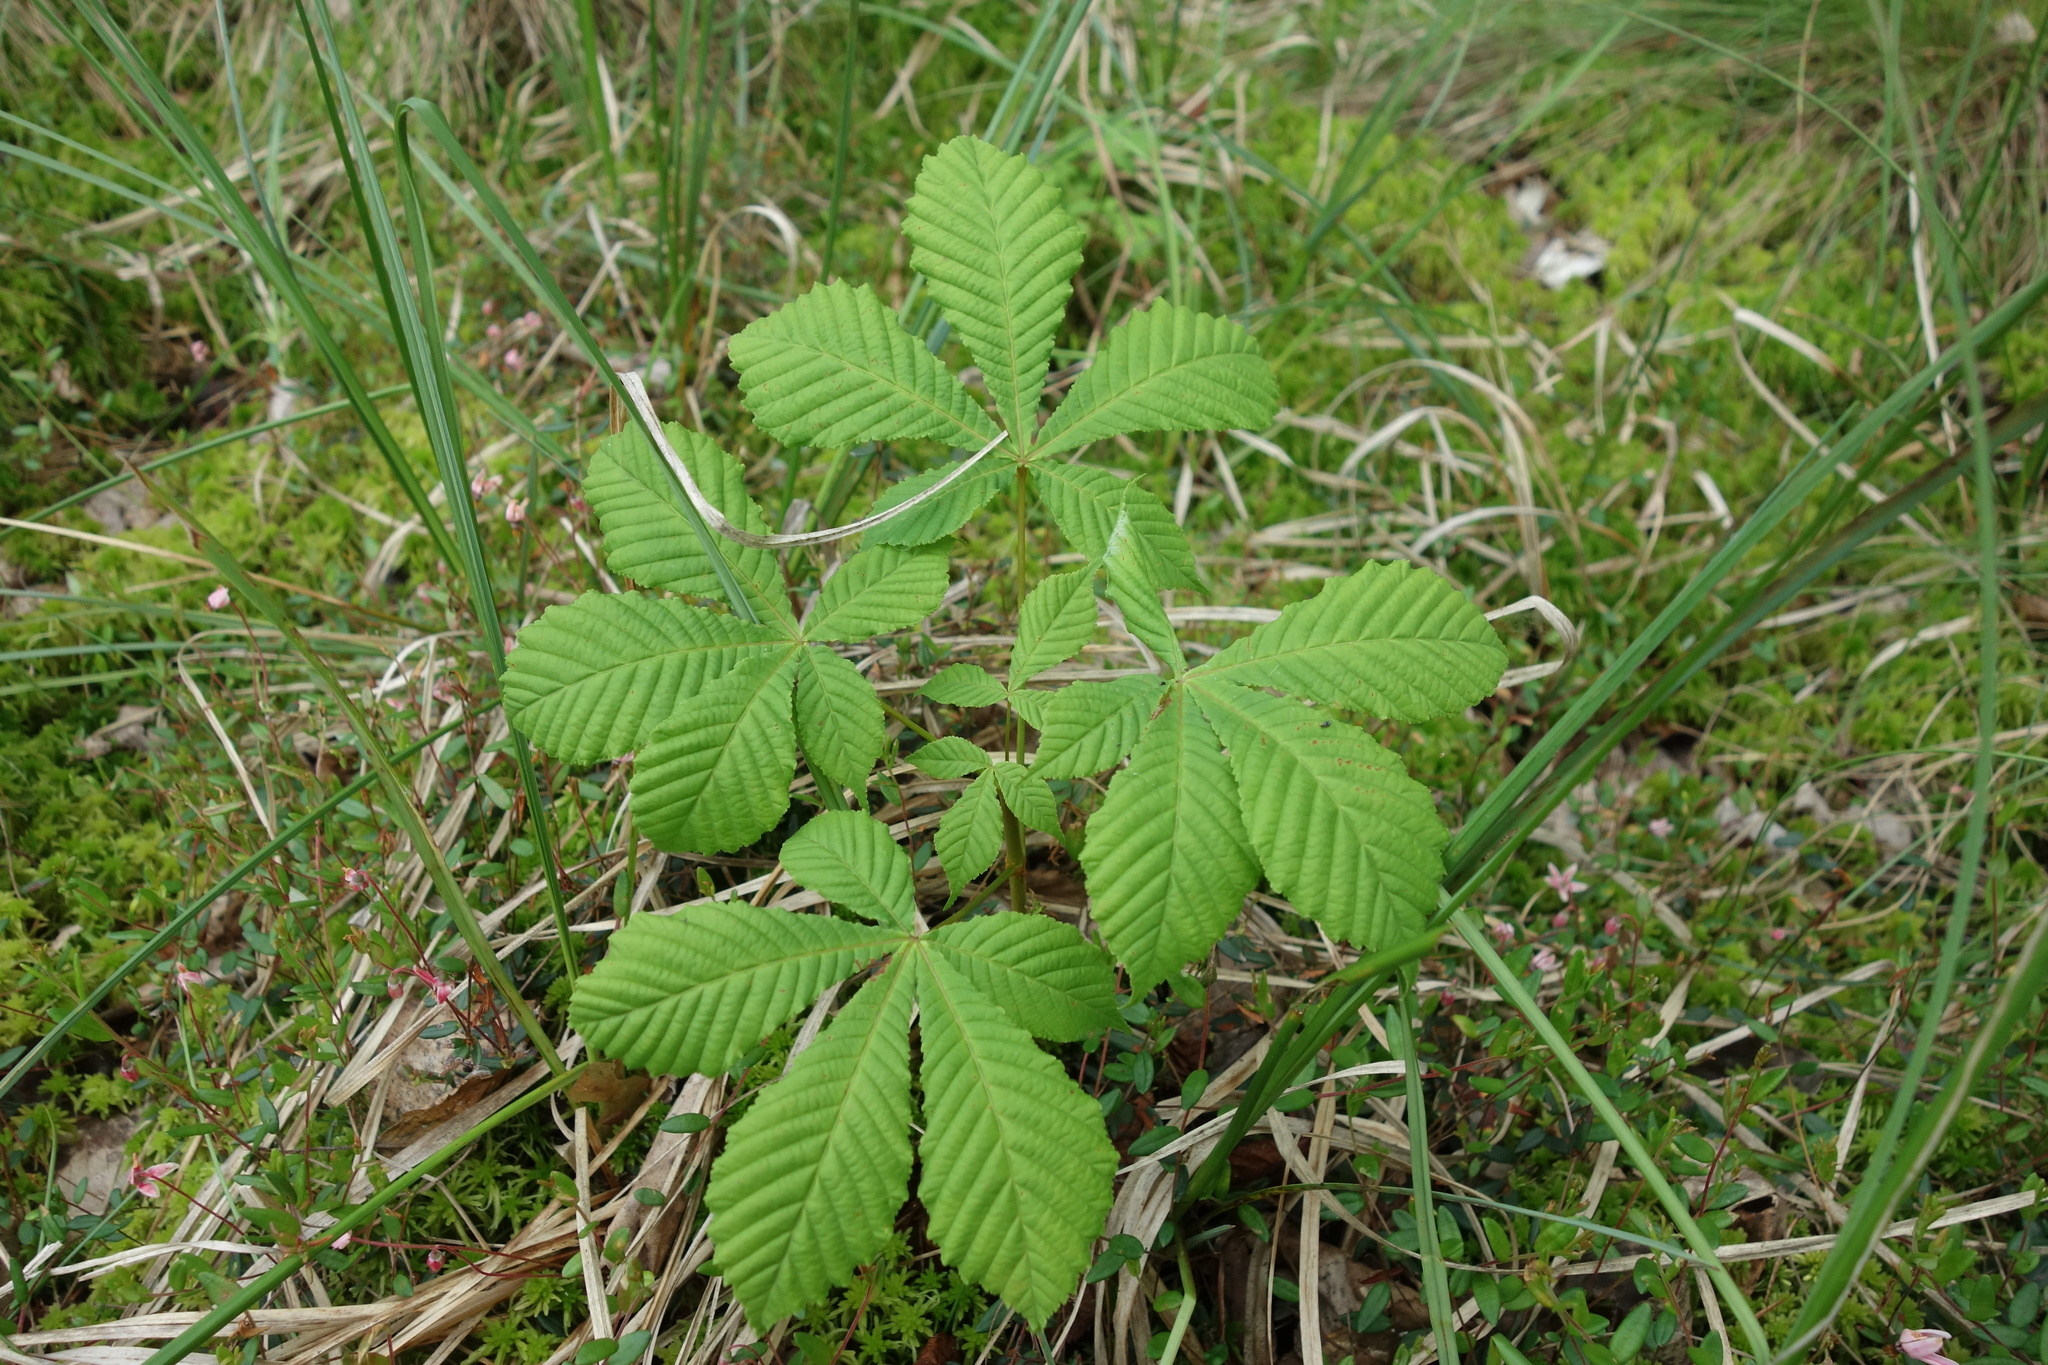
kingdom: Plantae
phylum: Tracheophyta
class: Magnoliopsida
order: Sapindales
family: Sapindaceae
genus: Aesculus
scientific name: Aesculus hippocastanum
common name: Horse-chestnut
